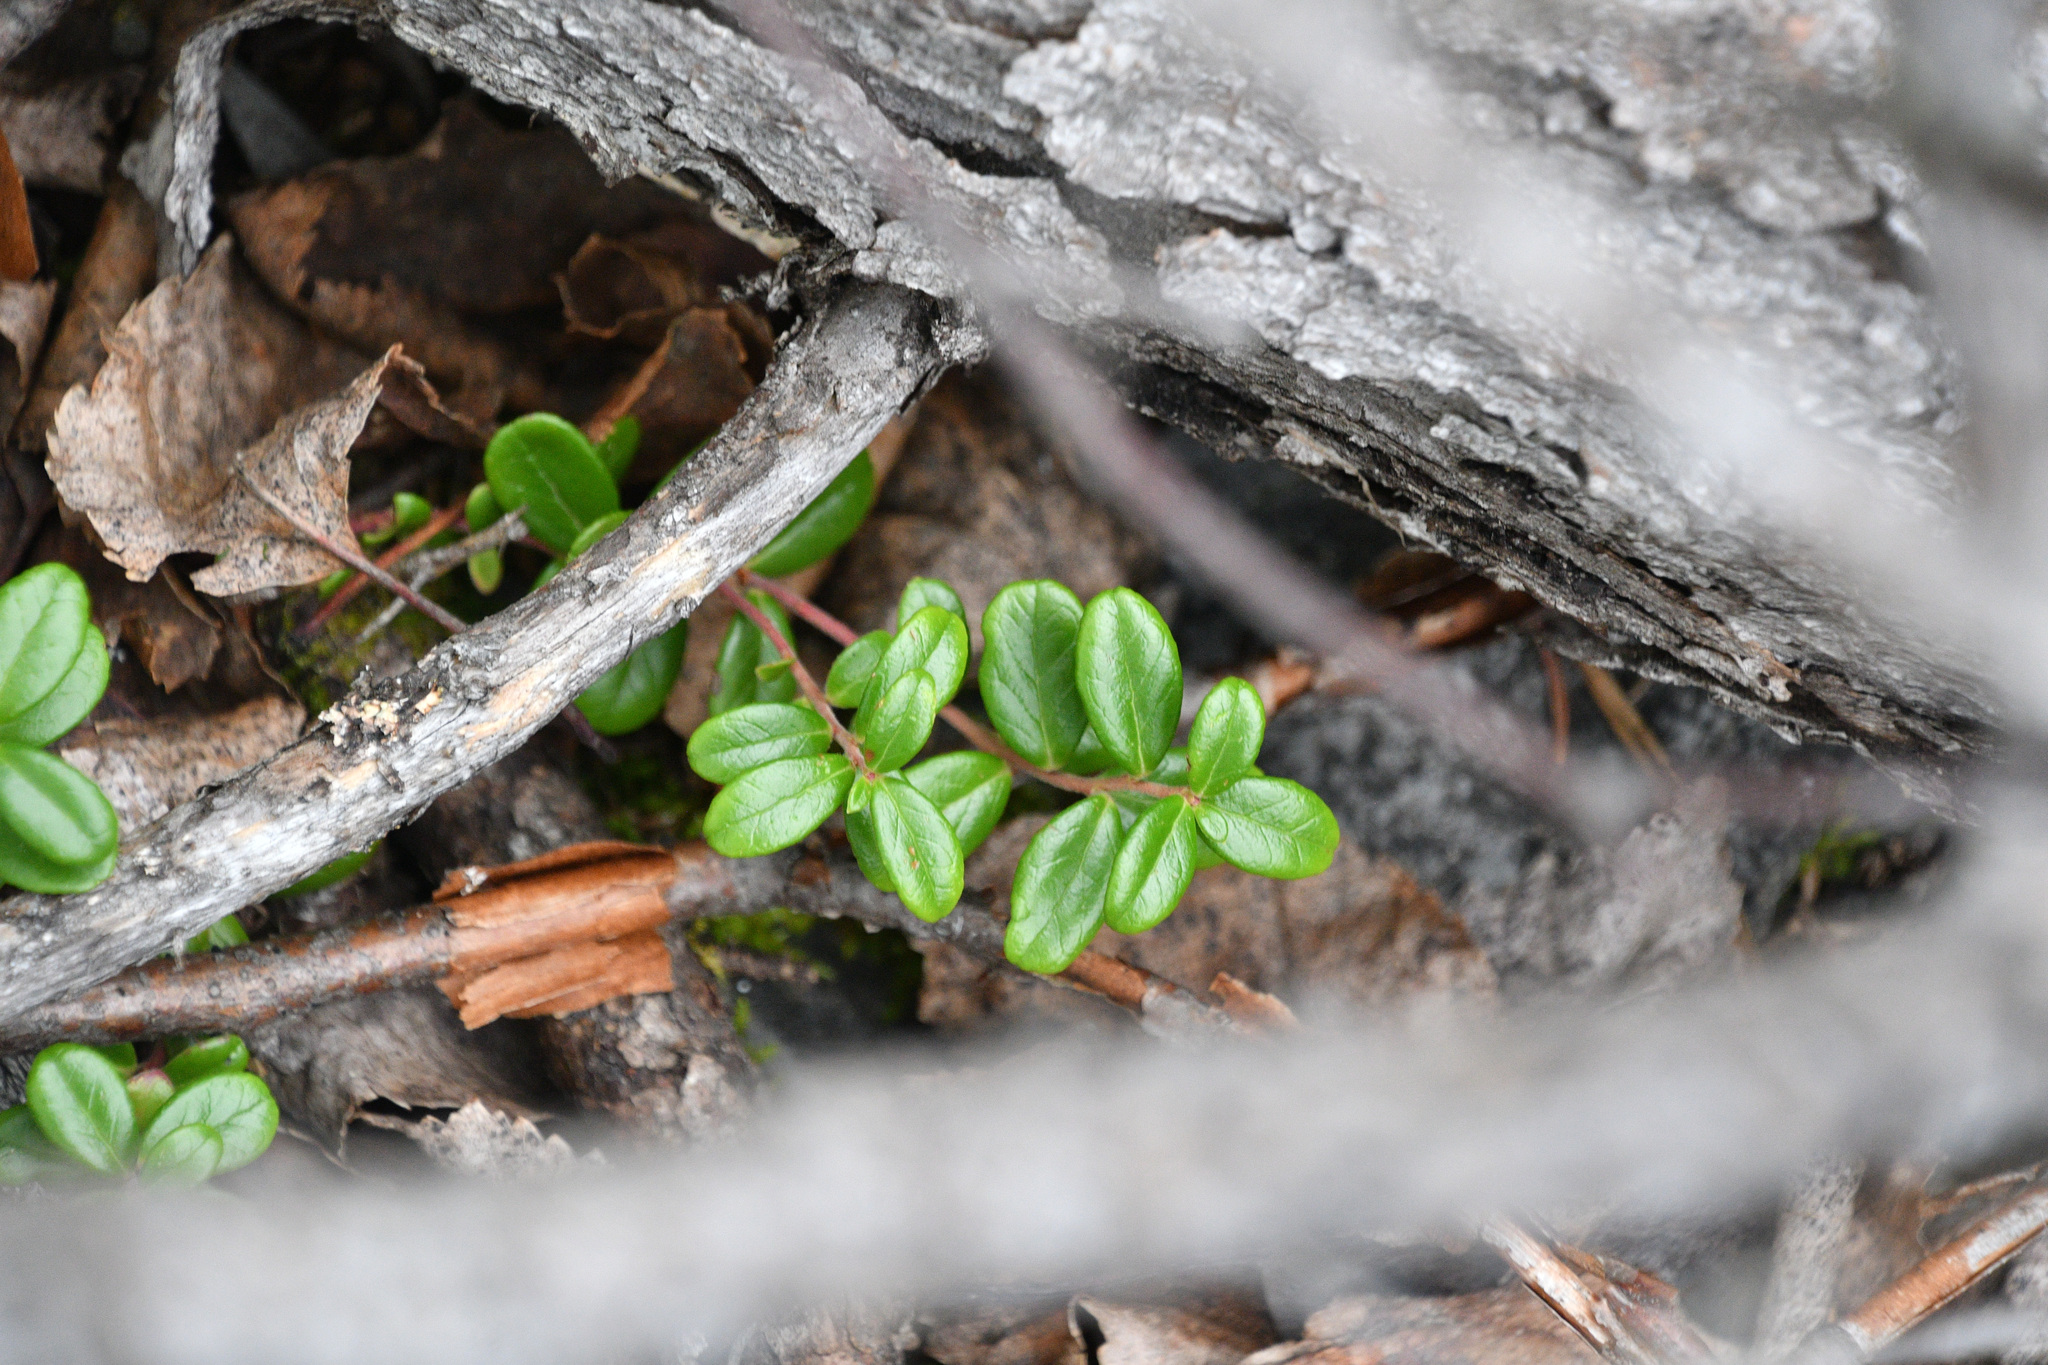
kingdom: Plantae
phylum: Tracheophyta
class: Magnoliopsida
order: Ericales
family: Ericaceae
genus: Vaccinium
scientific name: Vaccinium vitis-idaea
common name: Cowberry
